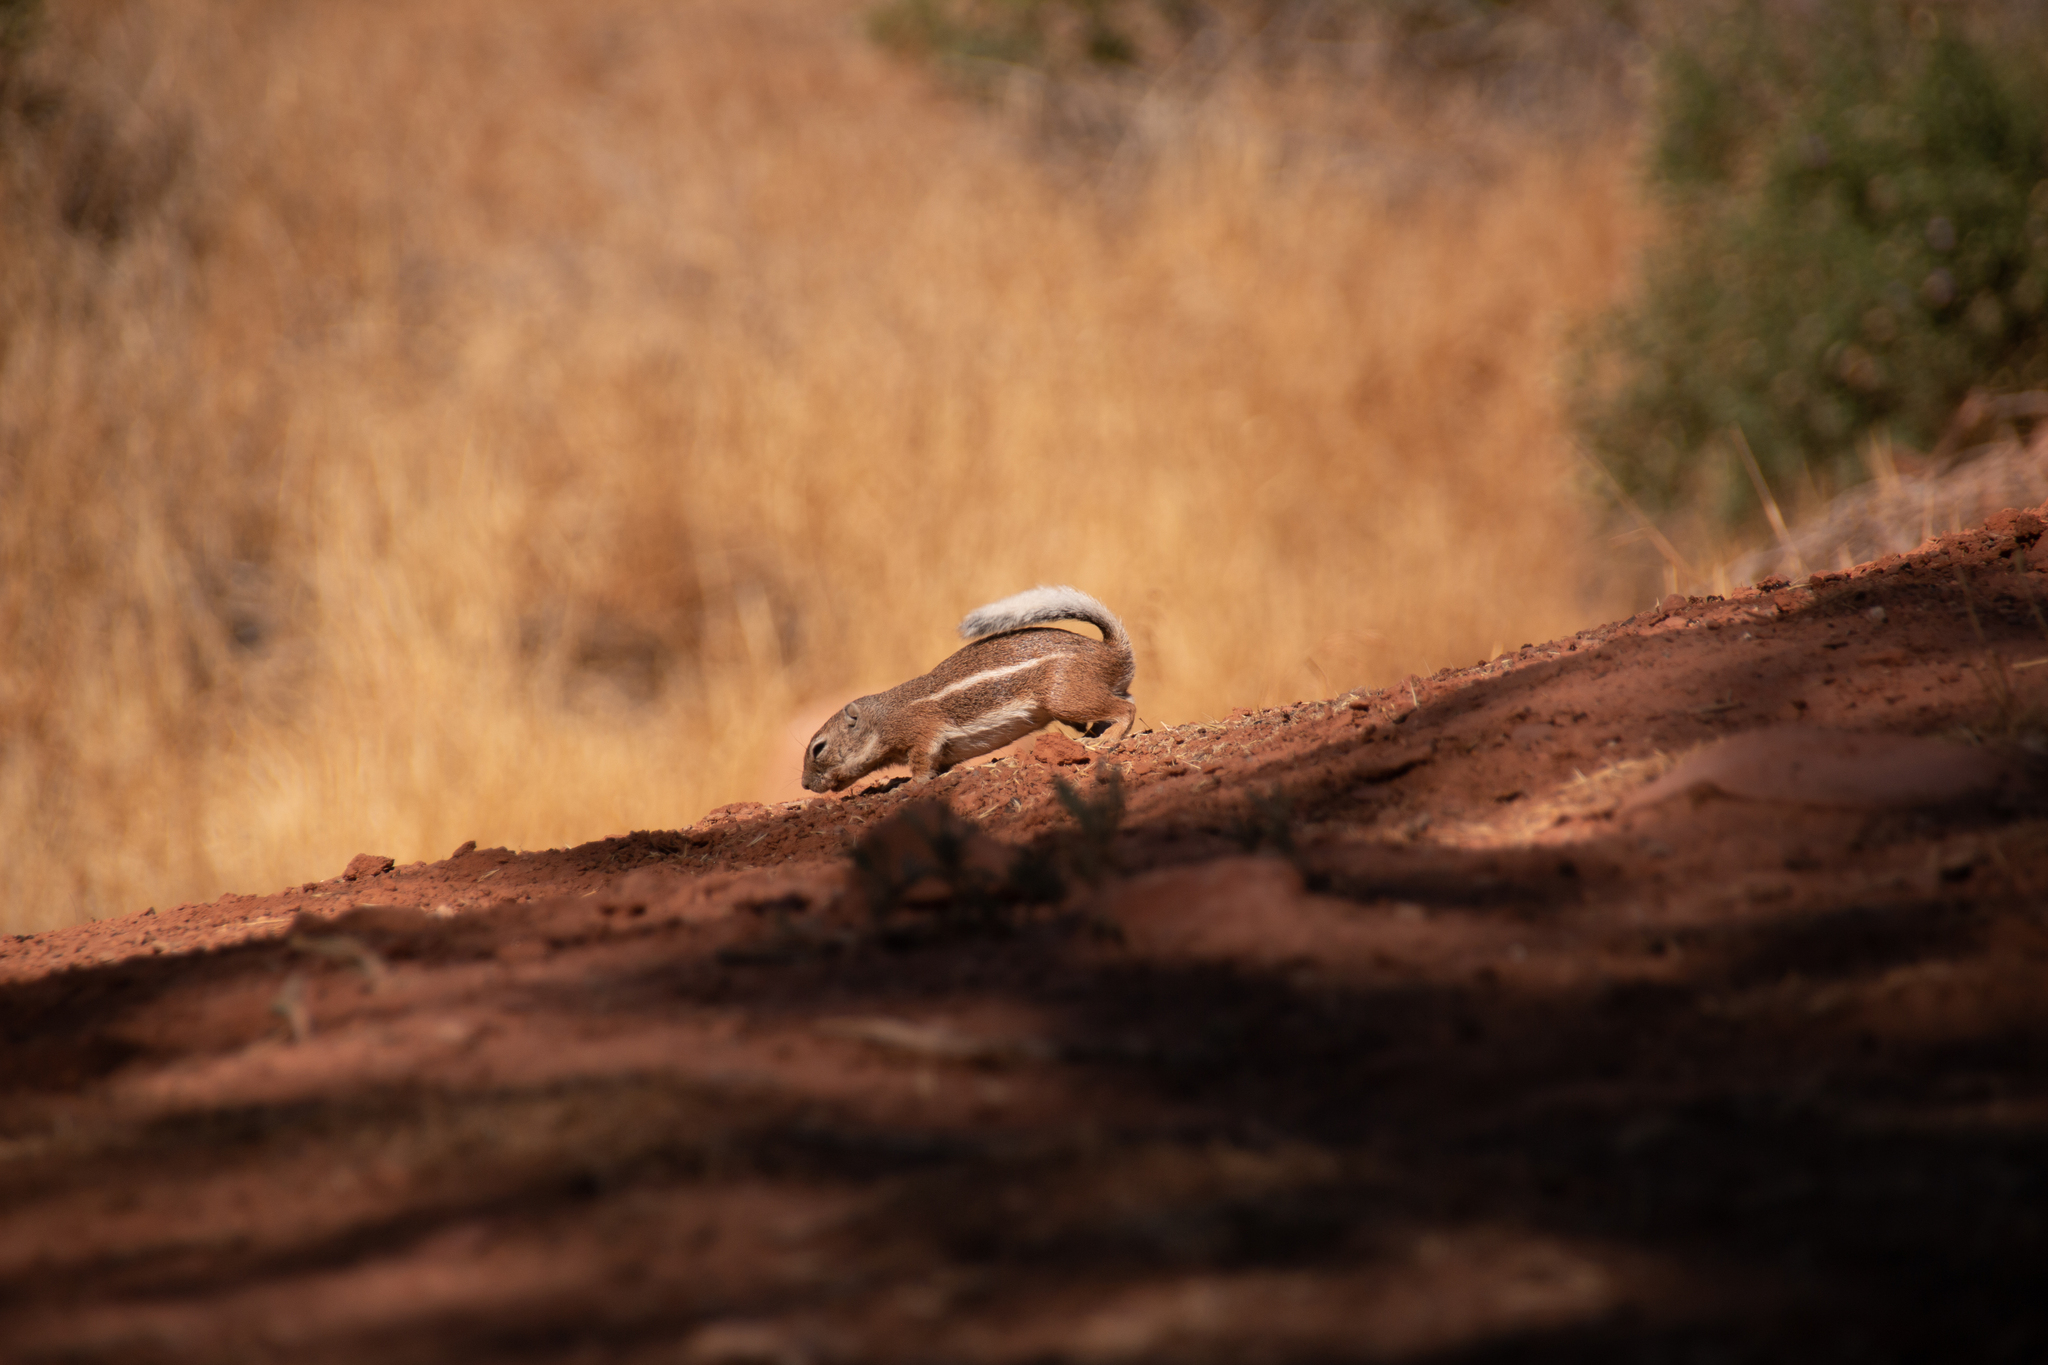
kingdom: Animalia
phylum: Chordata
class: Mammalia
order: Rodentia
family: Sciuridae
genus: Ammospermophilus
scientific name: Ammospermophilus leucurus
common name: White-tailed antelope squirrel
